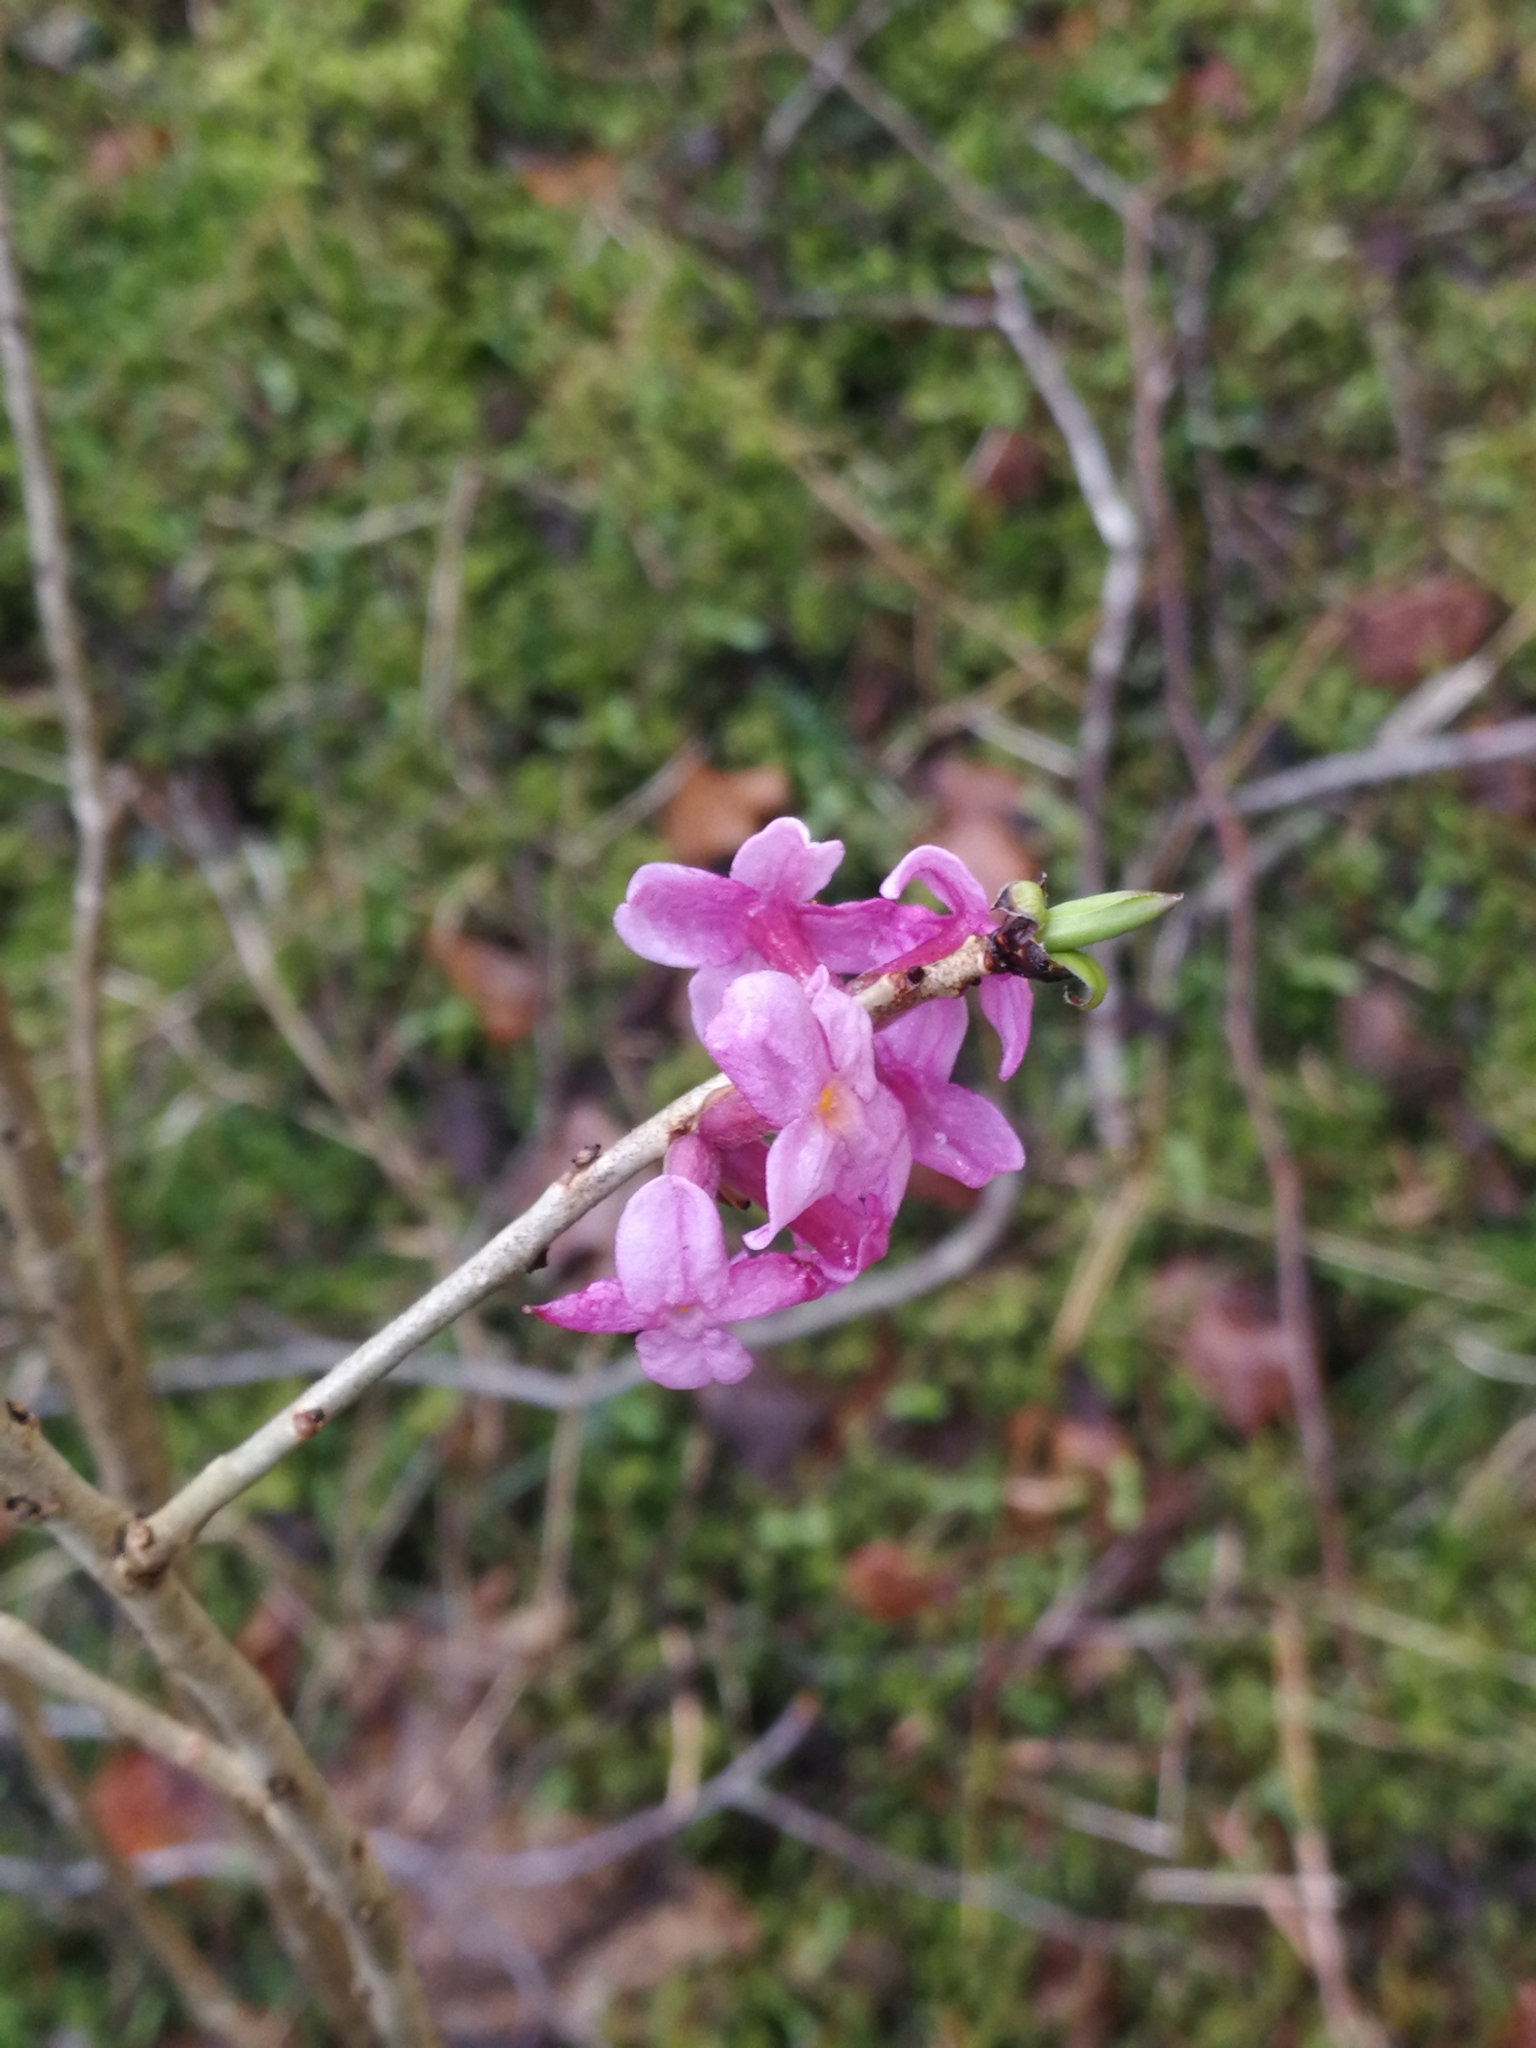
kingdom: Plantae
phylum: Tracheophyta
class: Magnoliopsida
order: Malvales
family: Thymelaeaceae
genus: Daphne
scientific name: Daphne mezereum
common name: Mezereon
